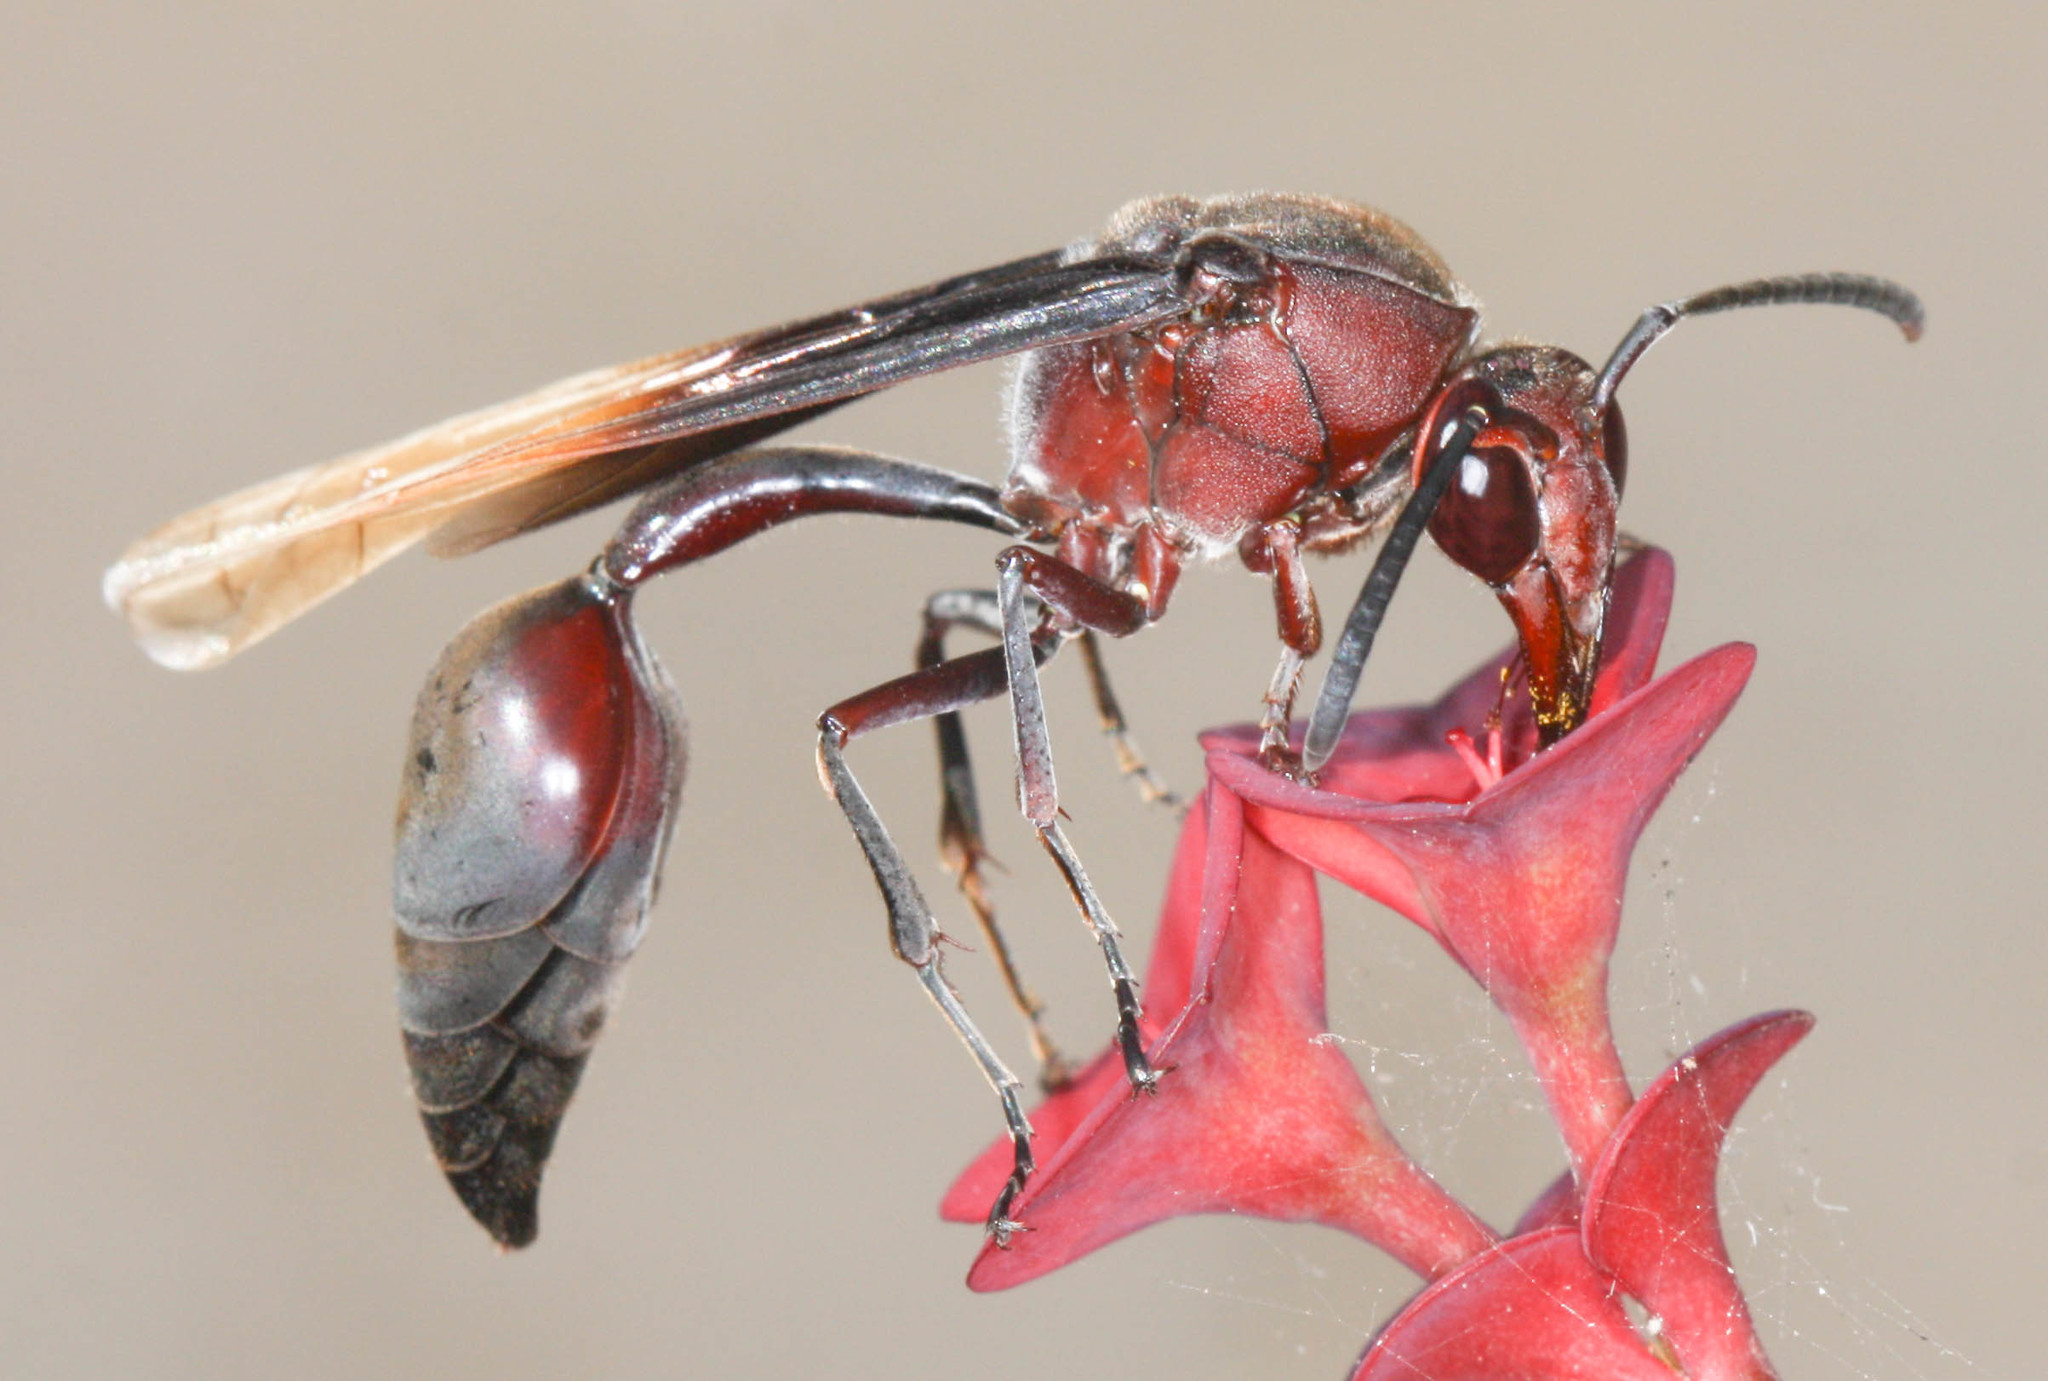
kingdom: Animalia
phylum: Arthropoda
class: Insecta
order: Hymenoptera
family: Eumenidae
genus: Delta
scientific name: Delta regina
